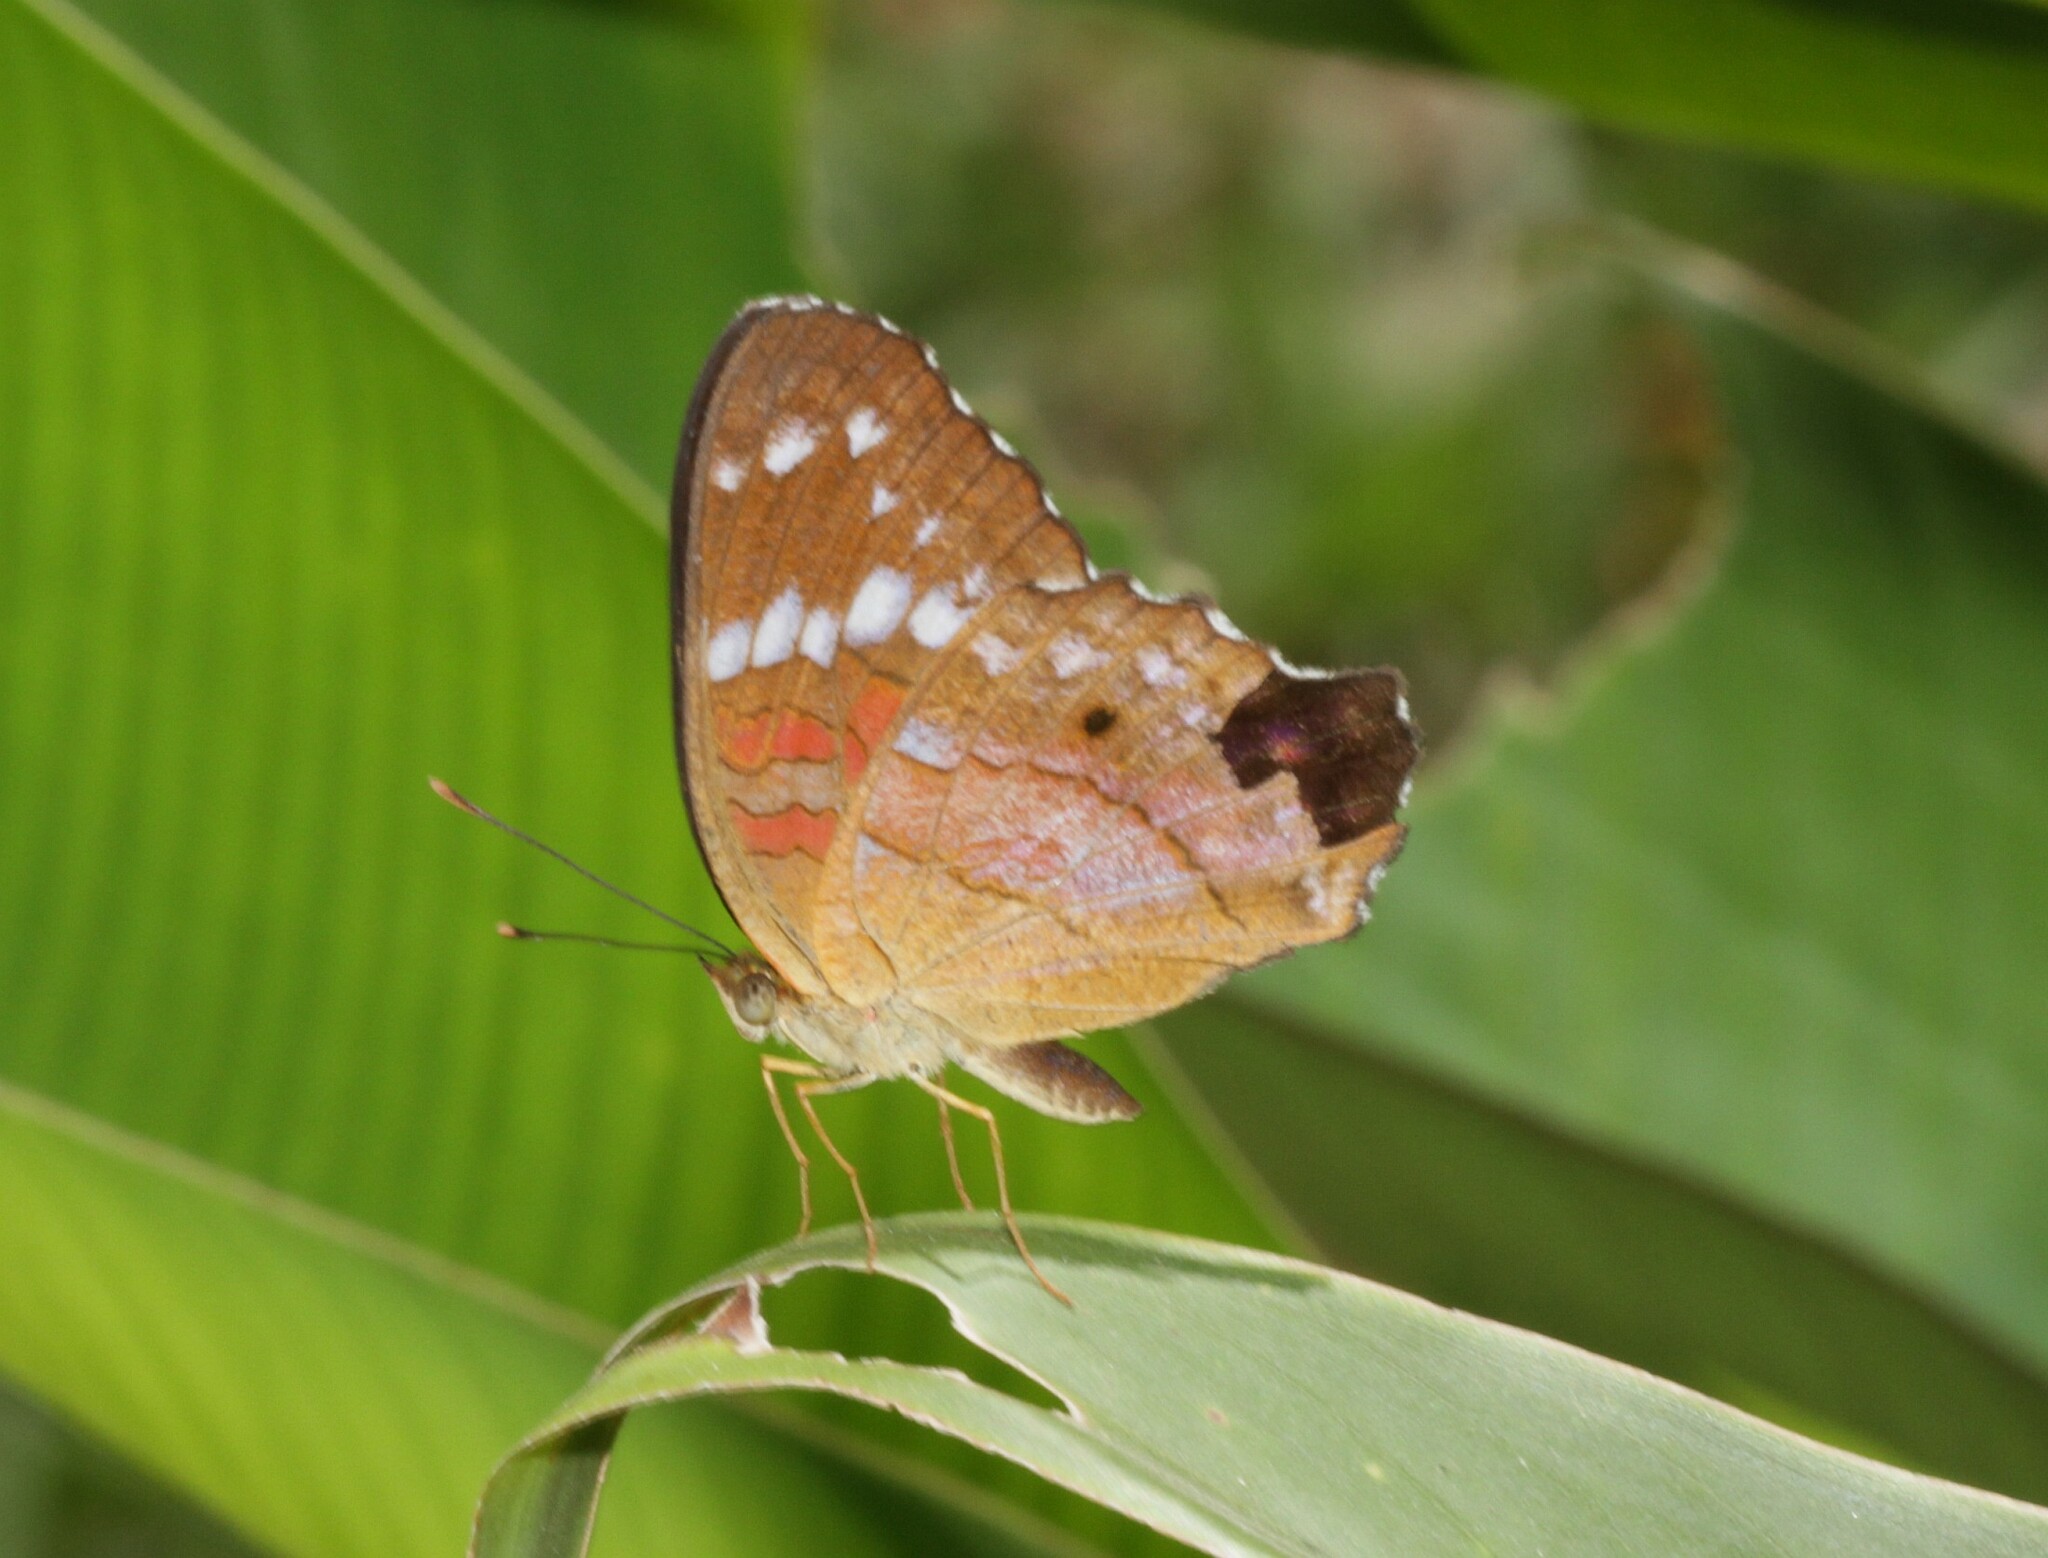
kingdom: Animalia
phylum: Arthropoda
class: Insecta
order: Lepidoptera
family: Nymphalidae
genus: Anartia
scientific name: Anartia amathea
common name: Red peacock
